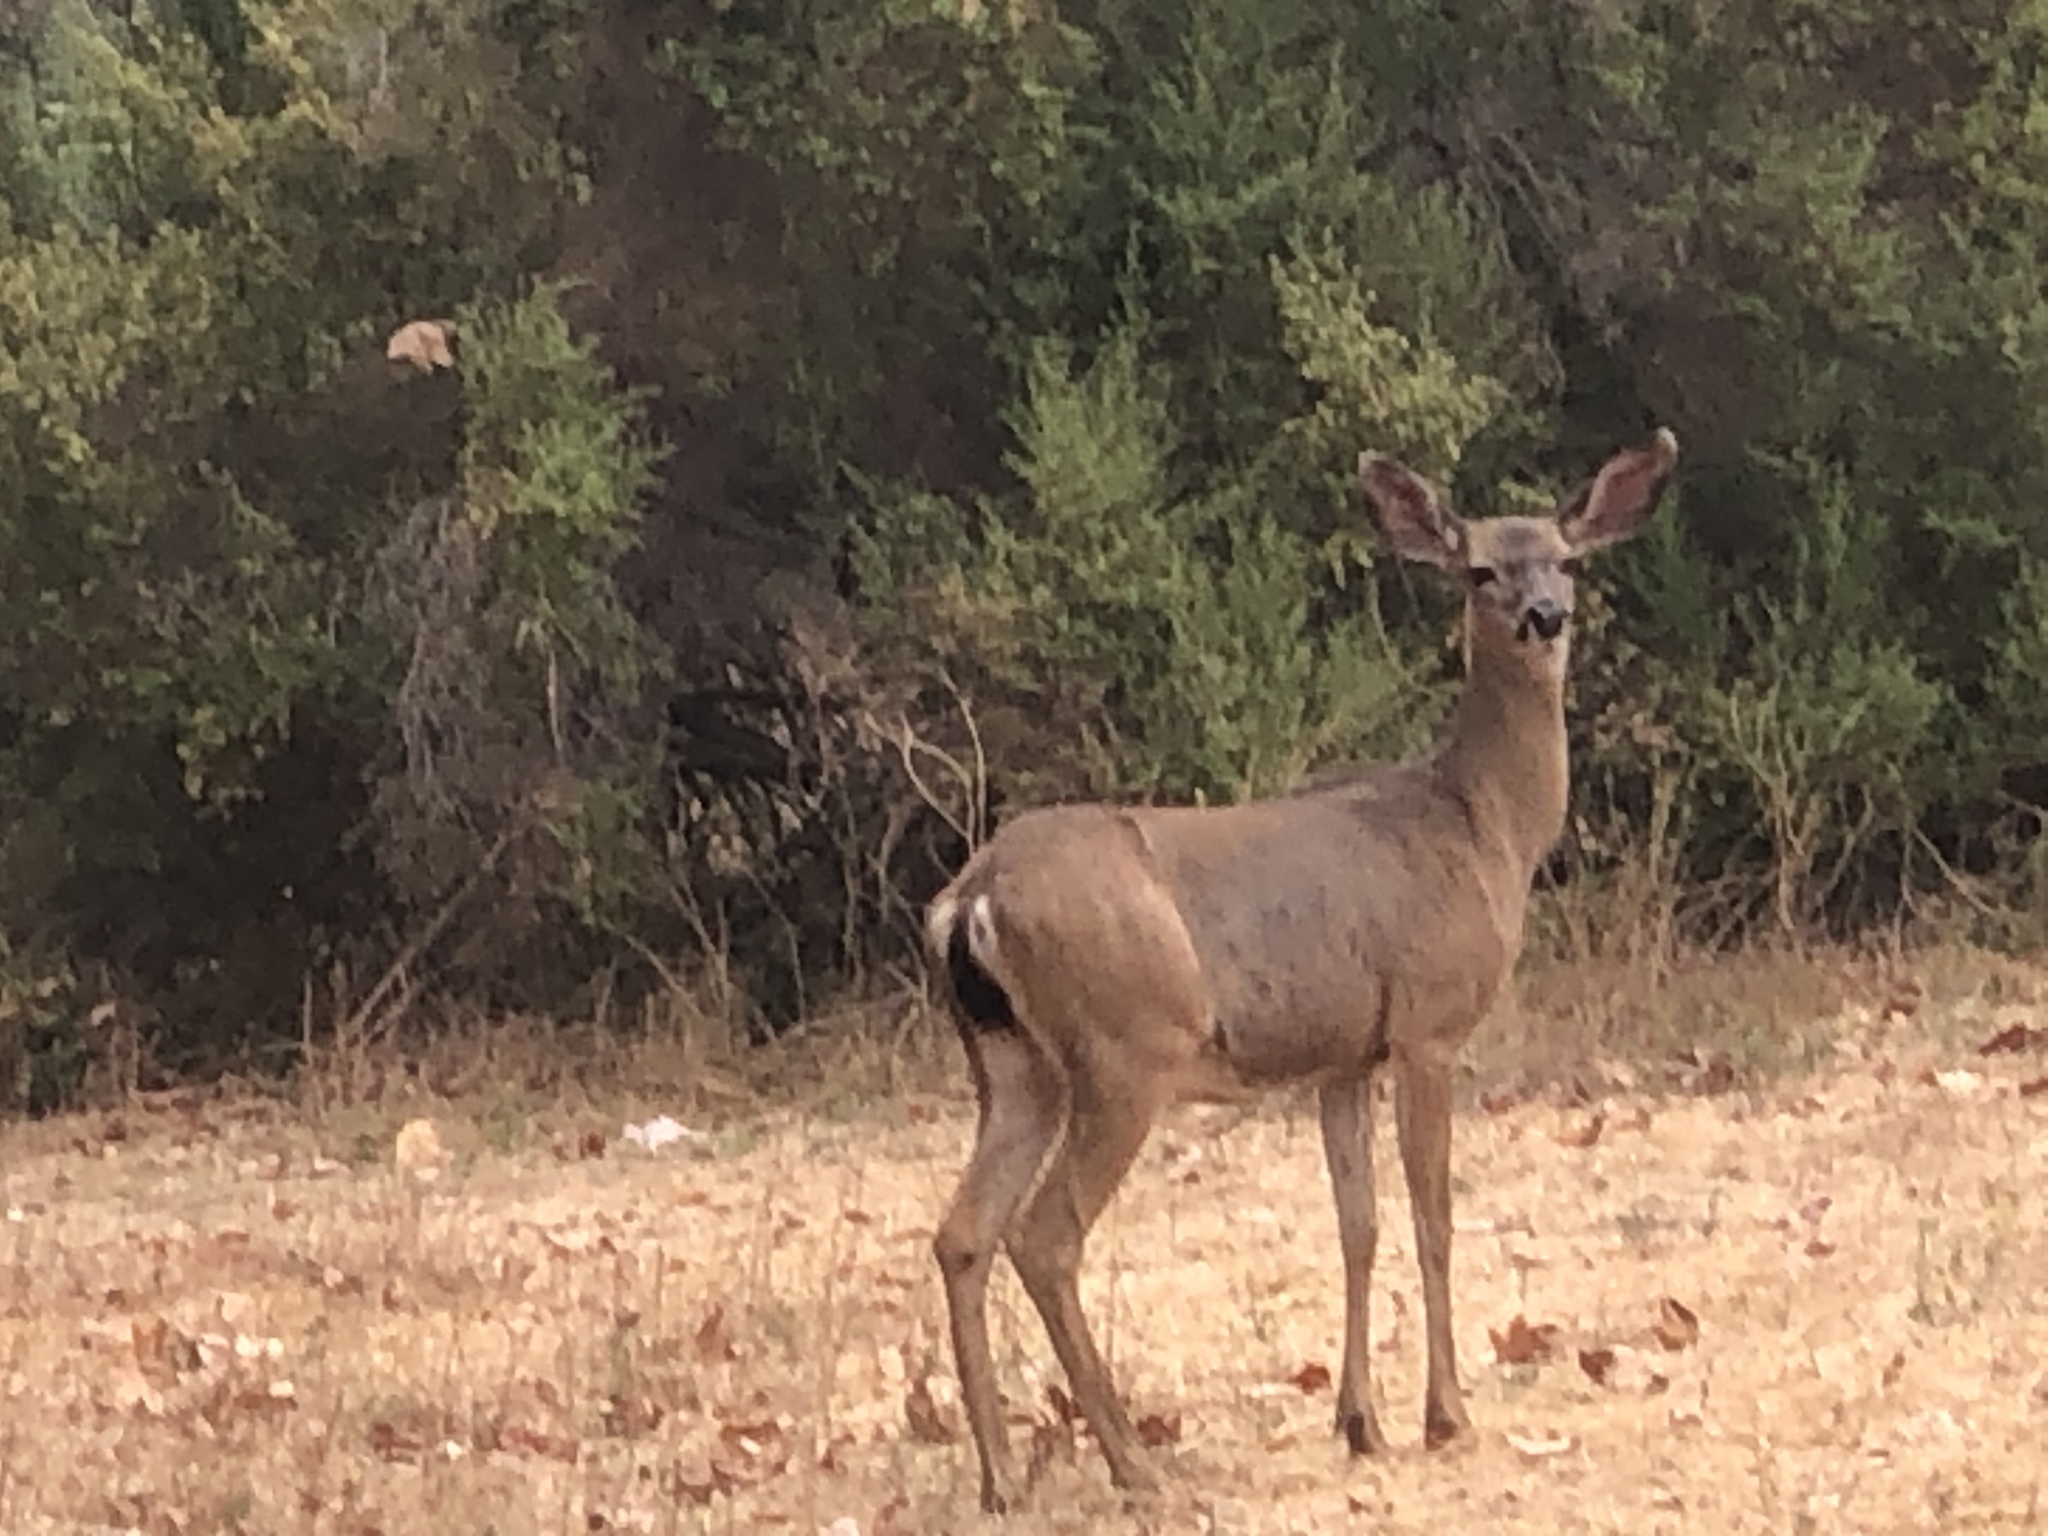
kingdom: Animalia
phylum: Chordata
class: Mammalia
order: Artiodactyla
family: Cervidae
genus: Odocoileus
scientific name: Odocoileus hemionus
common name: Mule deer
